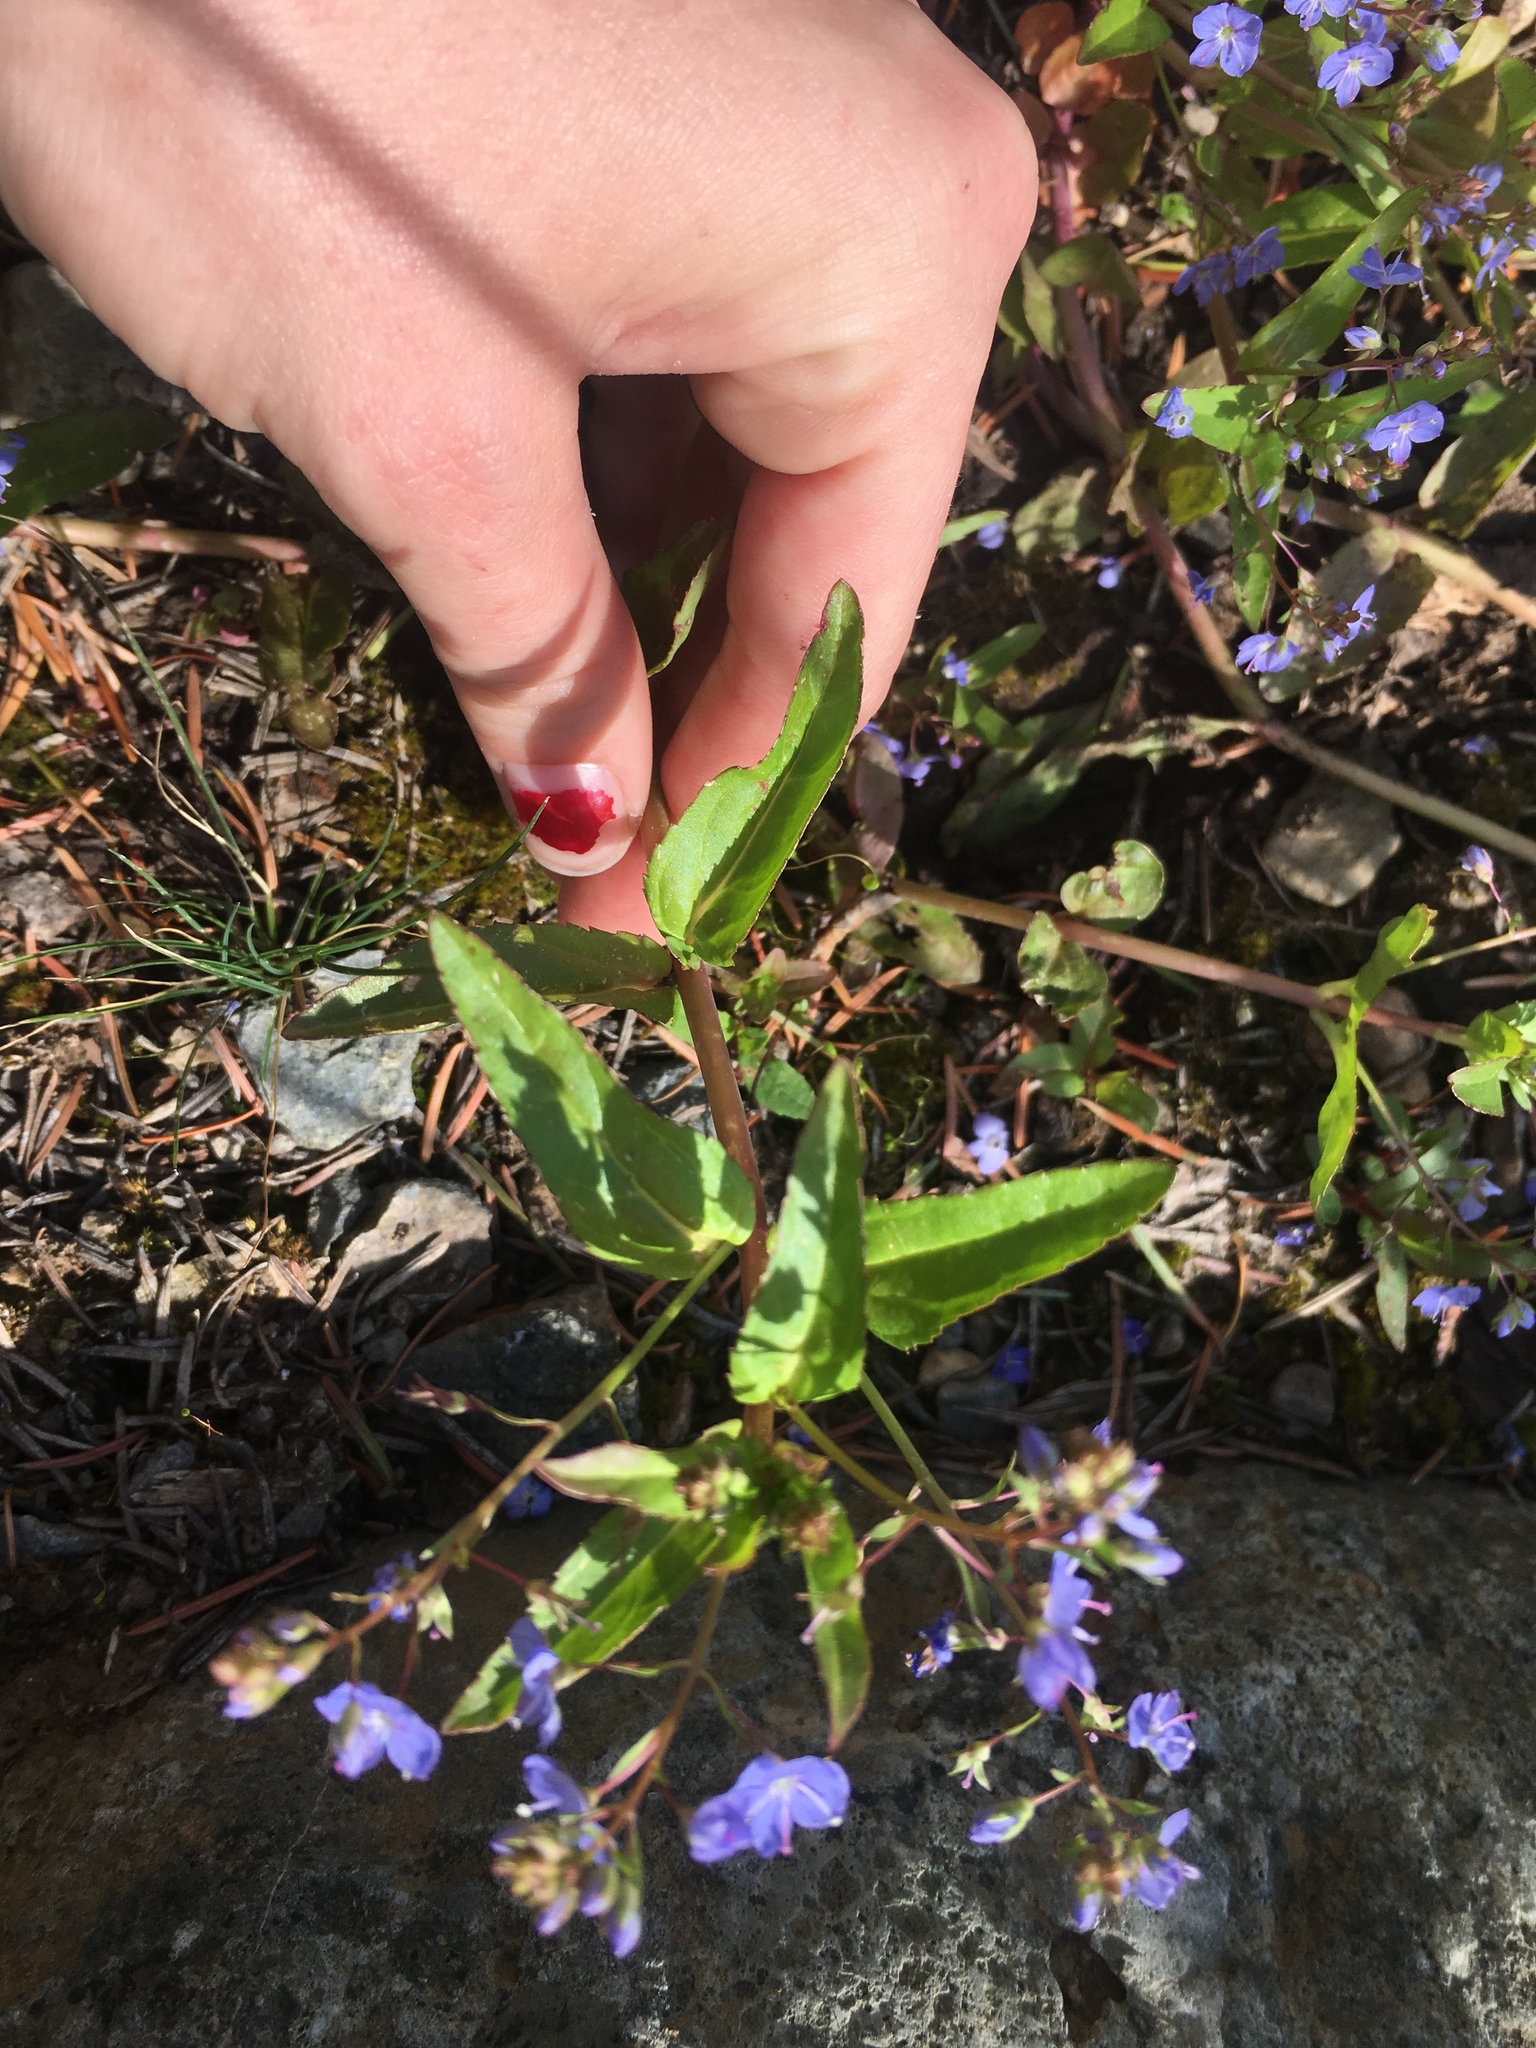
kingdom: Plantae
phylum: Tracheophyta
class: Magnoliopsida
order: Lamiales
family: Plantaginaceae
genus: Veronica
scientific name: Veronica americana
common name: American brooklime
